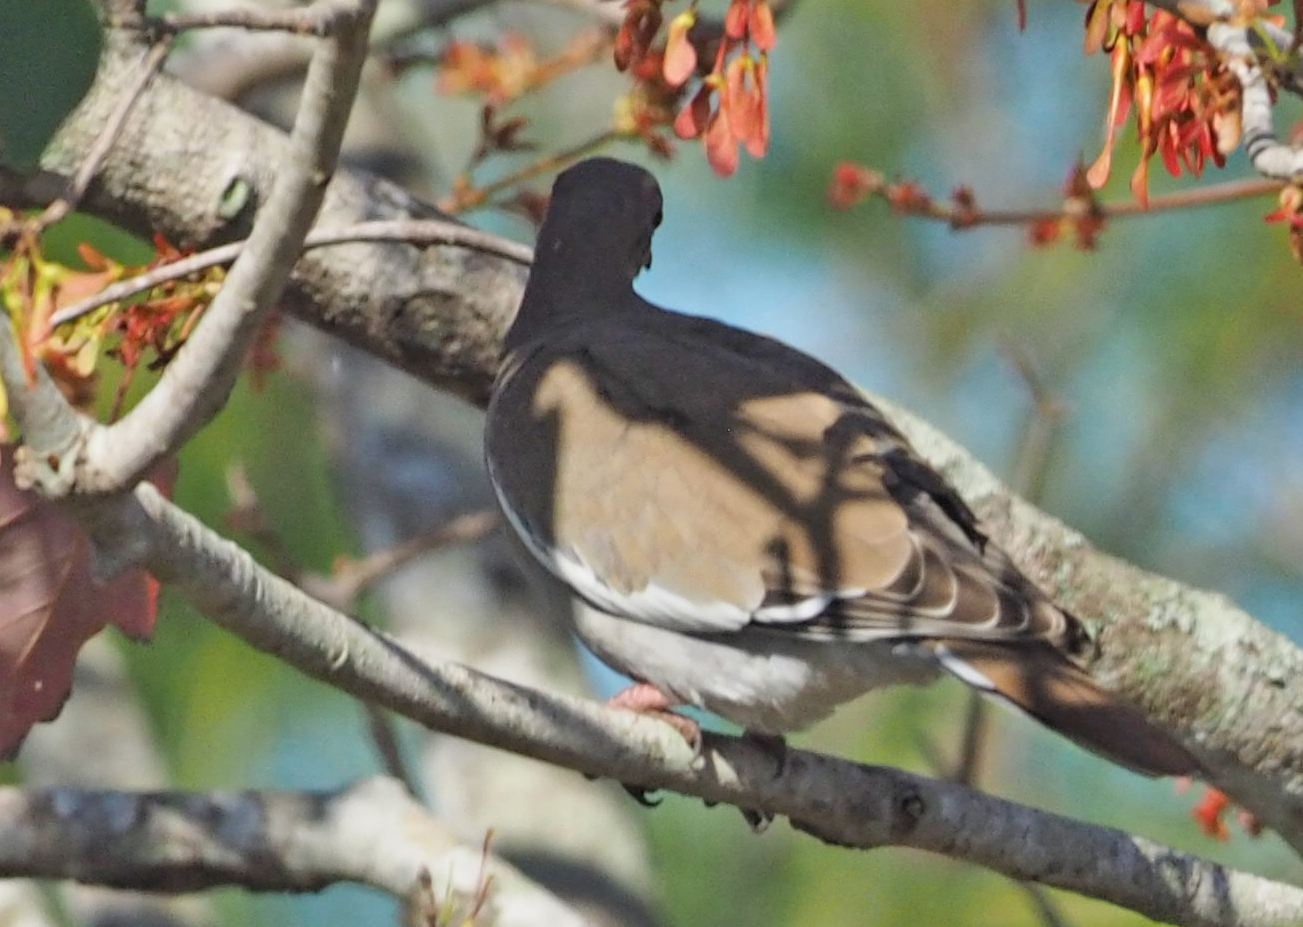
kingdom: Animalia
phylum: Chordata
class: Aves
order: Columbiformes
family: Columbidae
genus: Zenaida
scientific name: Zenaida asiatica
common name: White-winged dove
